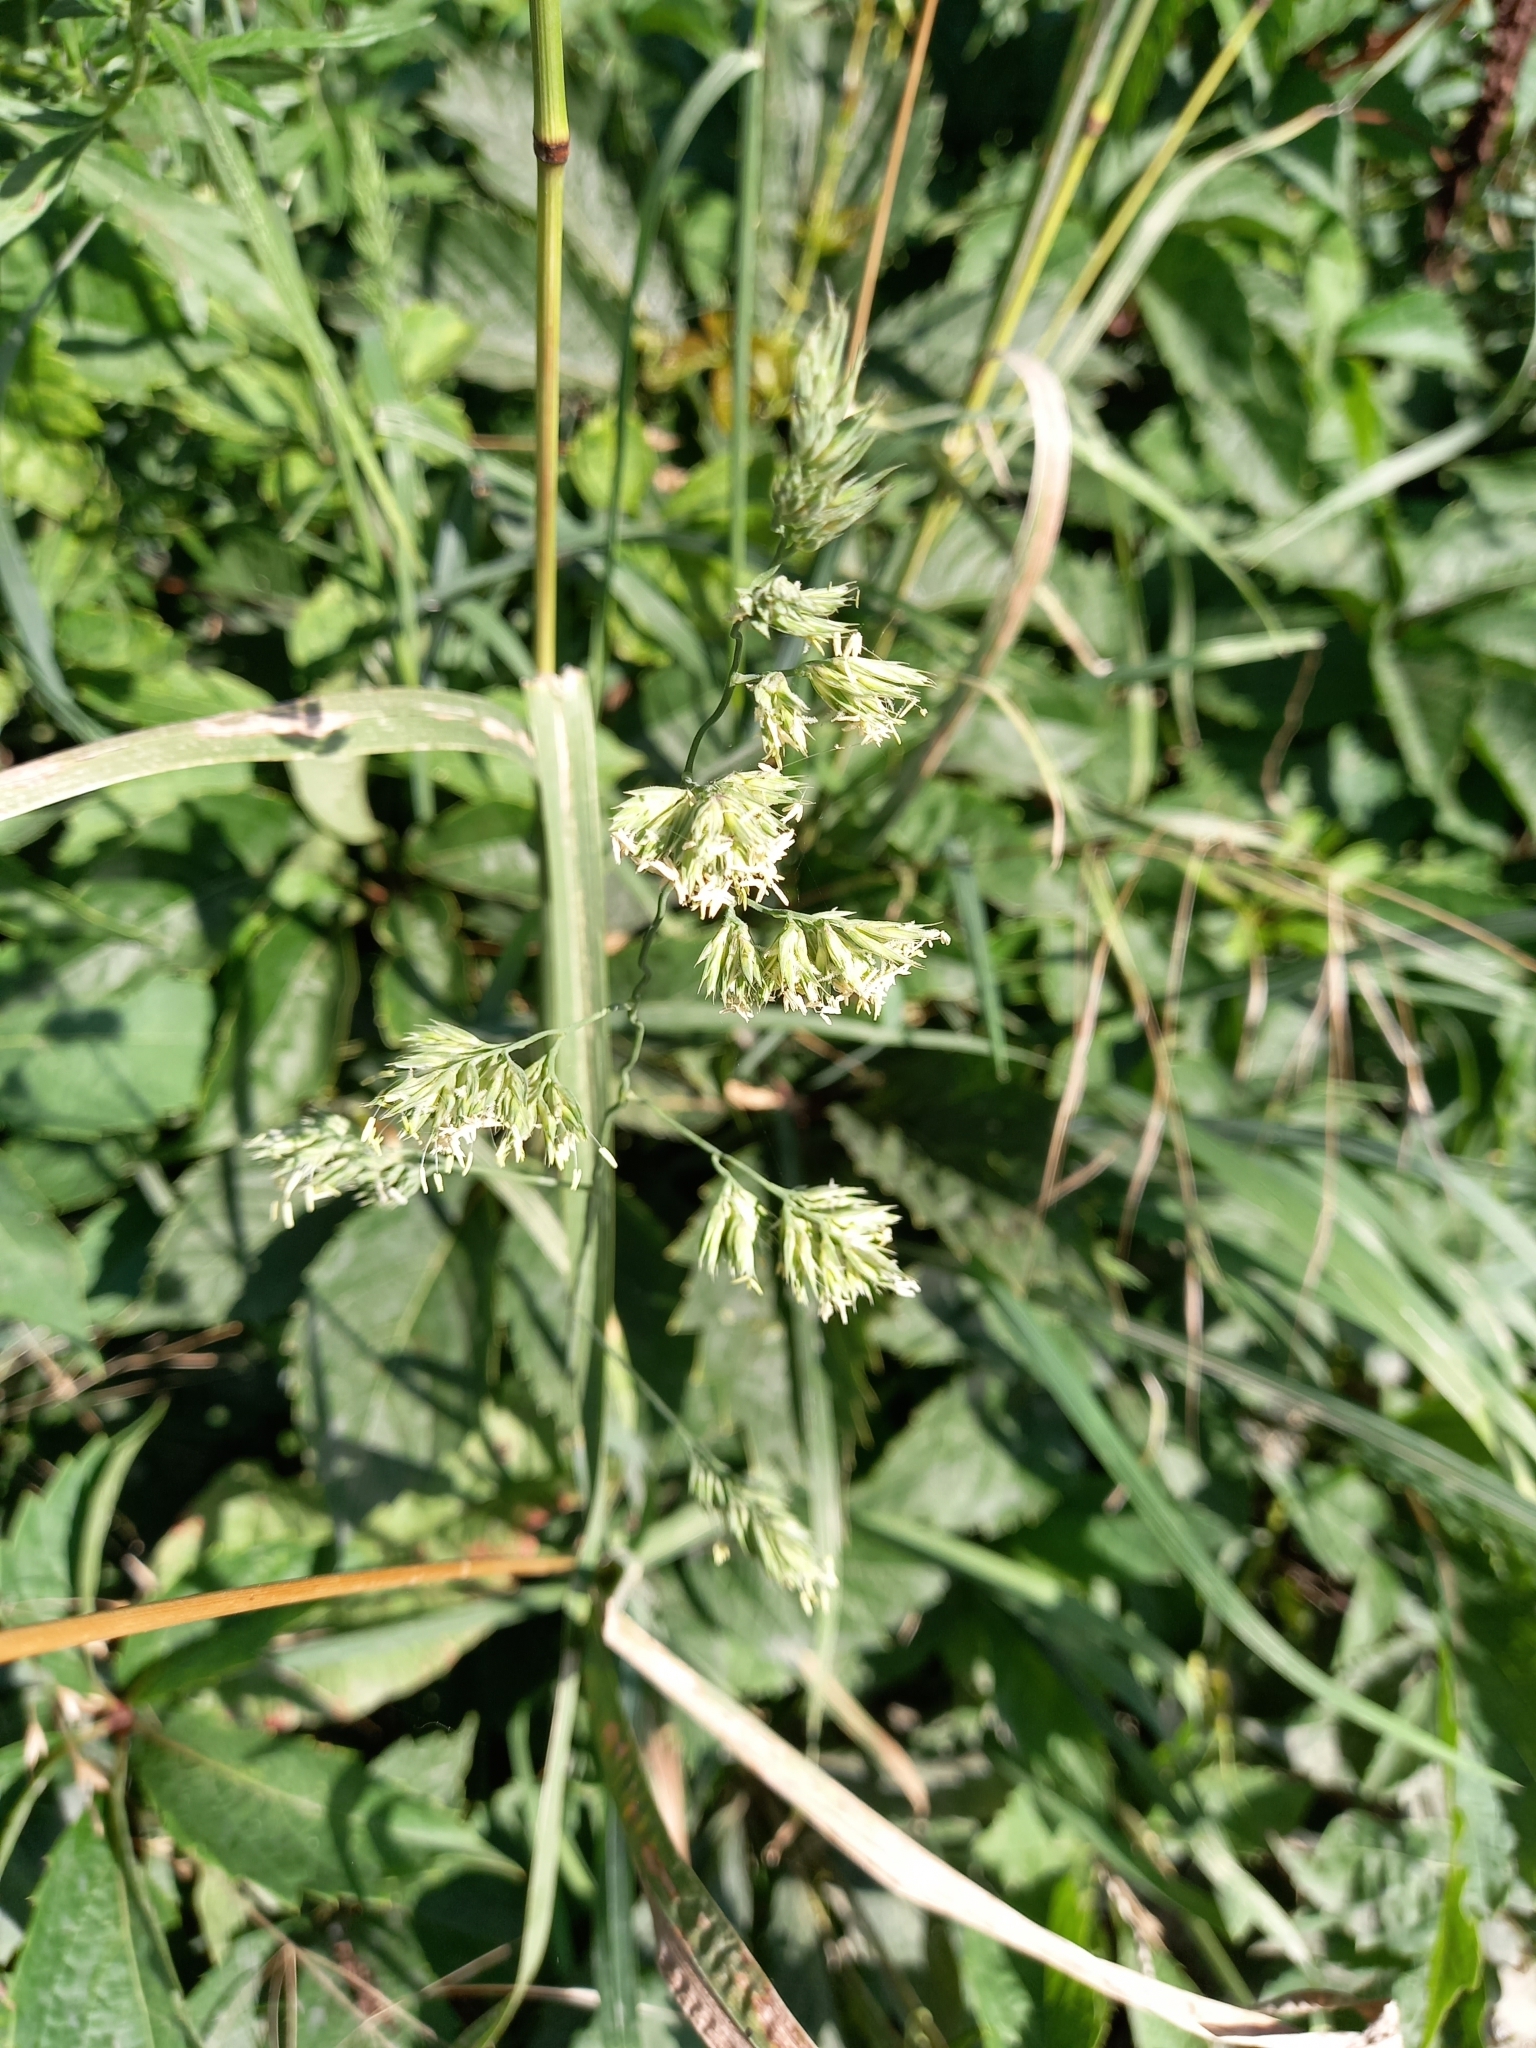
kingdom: Plantae
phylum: Tracheophyta
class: Liliopsida
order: Poales
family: Poaceae
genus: Dactylis
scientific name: Dactylis glomerata
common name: Orchardgrass
